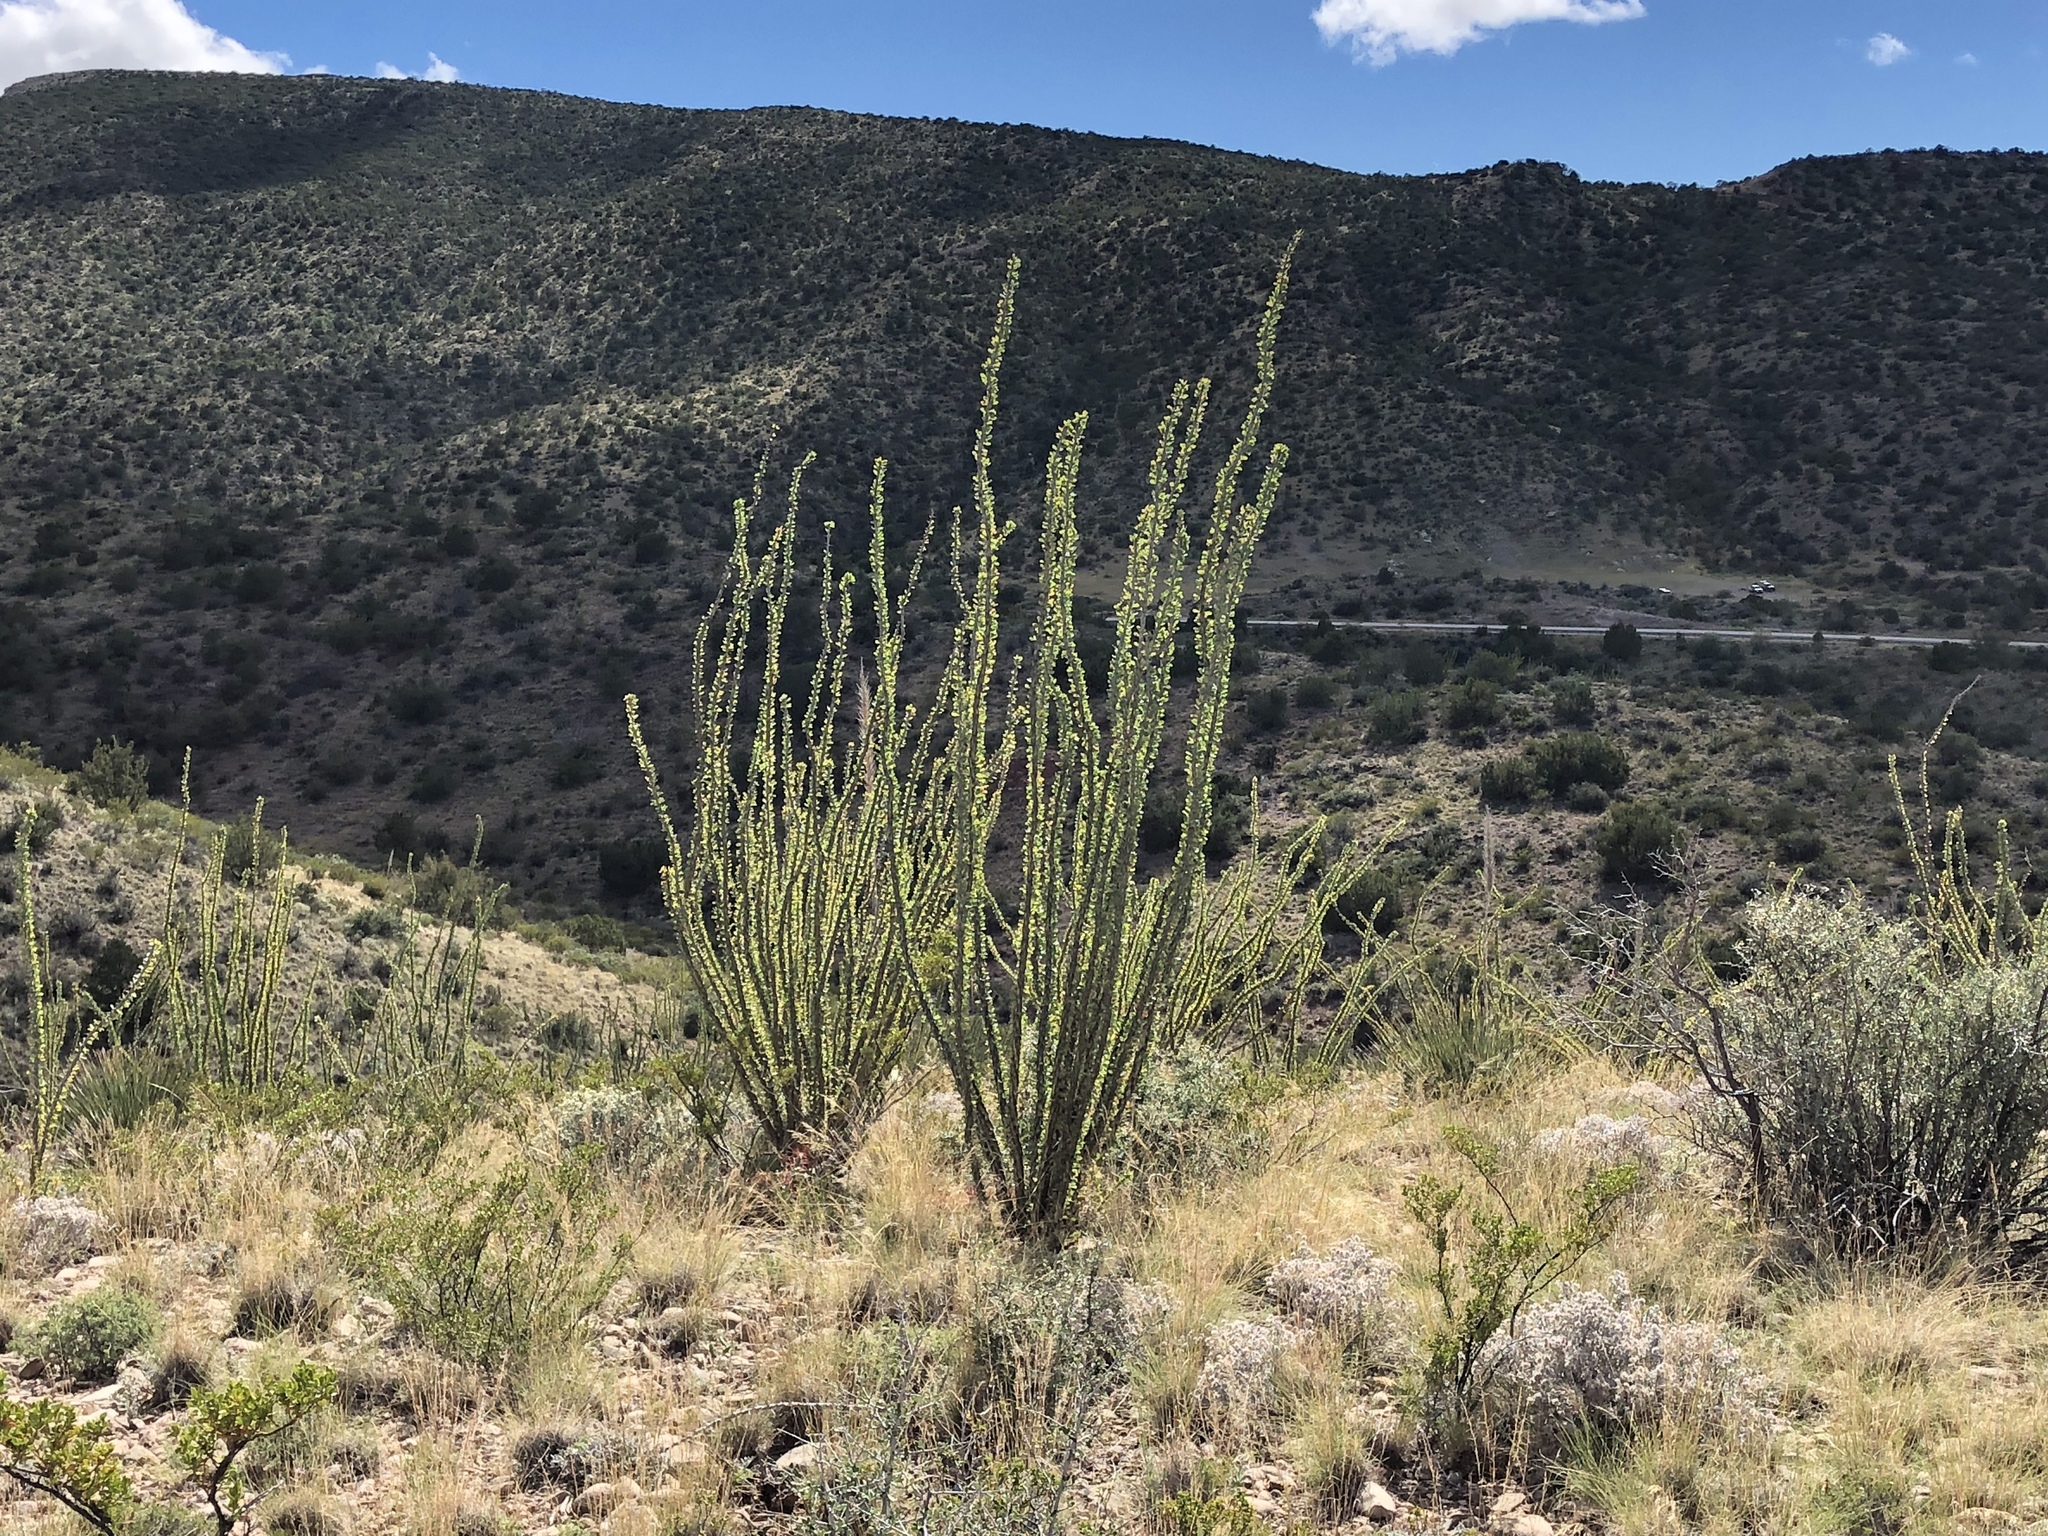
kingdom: Plantae
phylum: Tracheophyta
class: Magnoliopsida
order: Ericales
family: Fouquieriaceae
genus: Fouquieria
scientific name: Fouquieria splendens
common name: Vine-cactus
